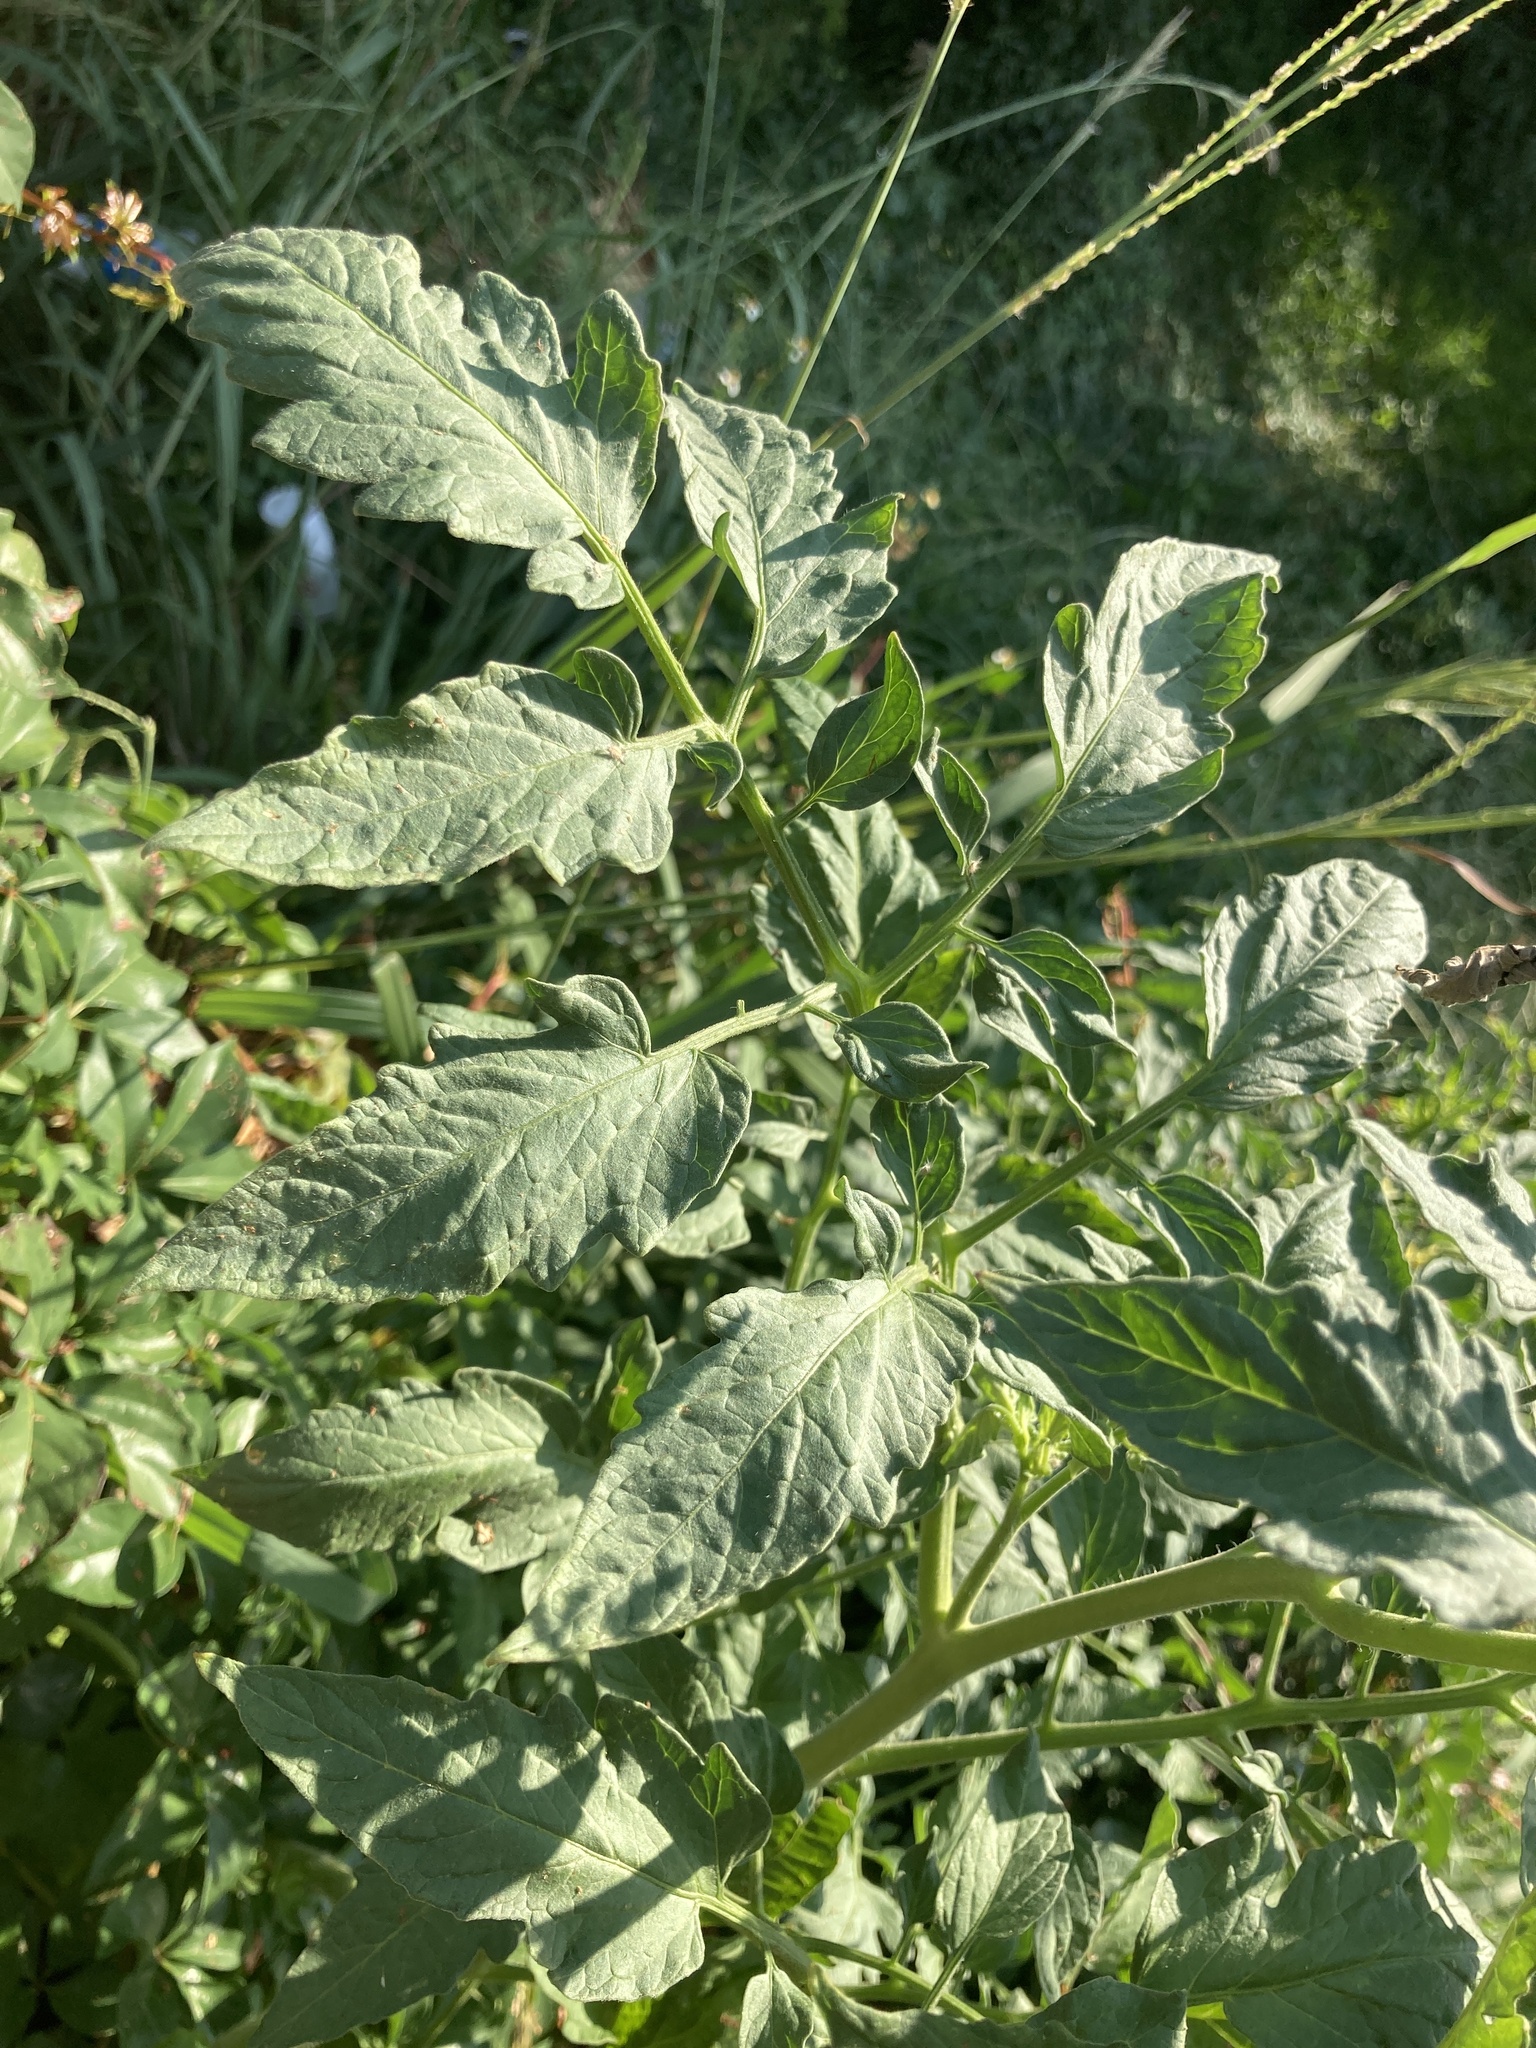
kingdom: Plantae
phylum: Tracheophyta
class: Magnoliopsida
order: Solanales
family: Solanaceae
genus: Solanum
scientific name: Solanum lycopersicum
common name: Garden tomato
